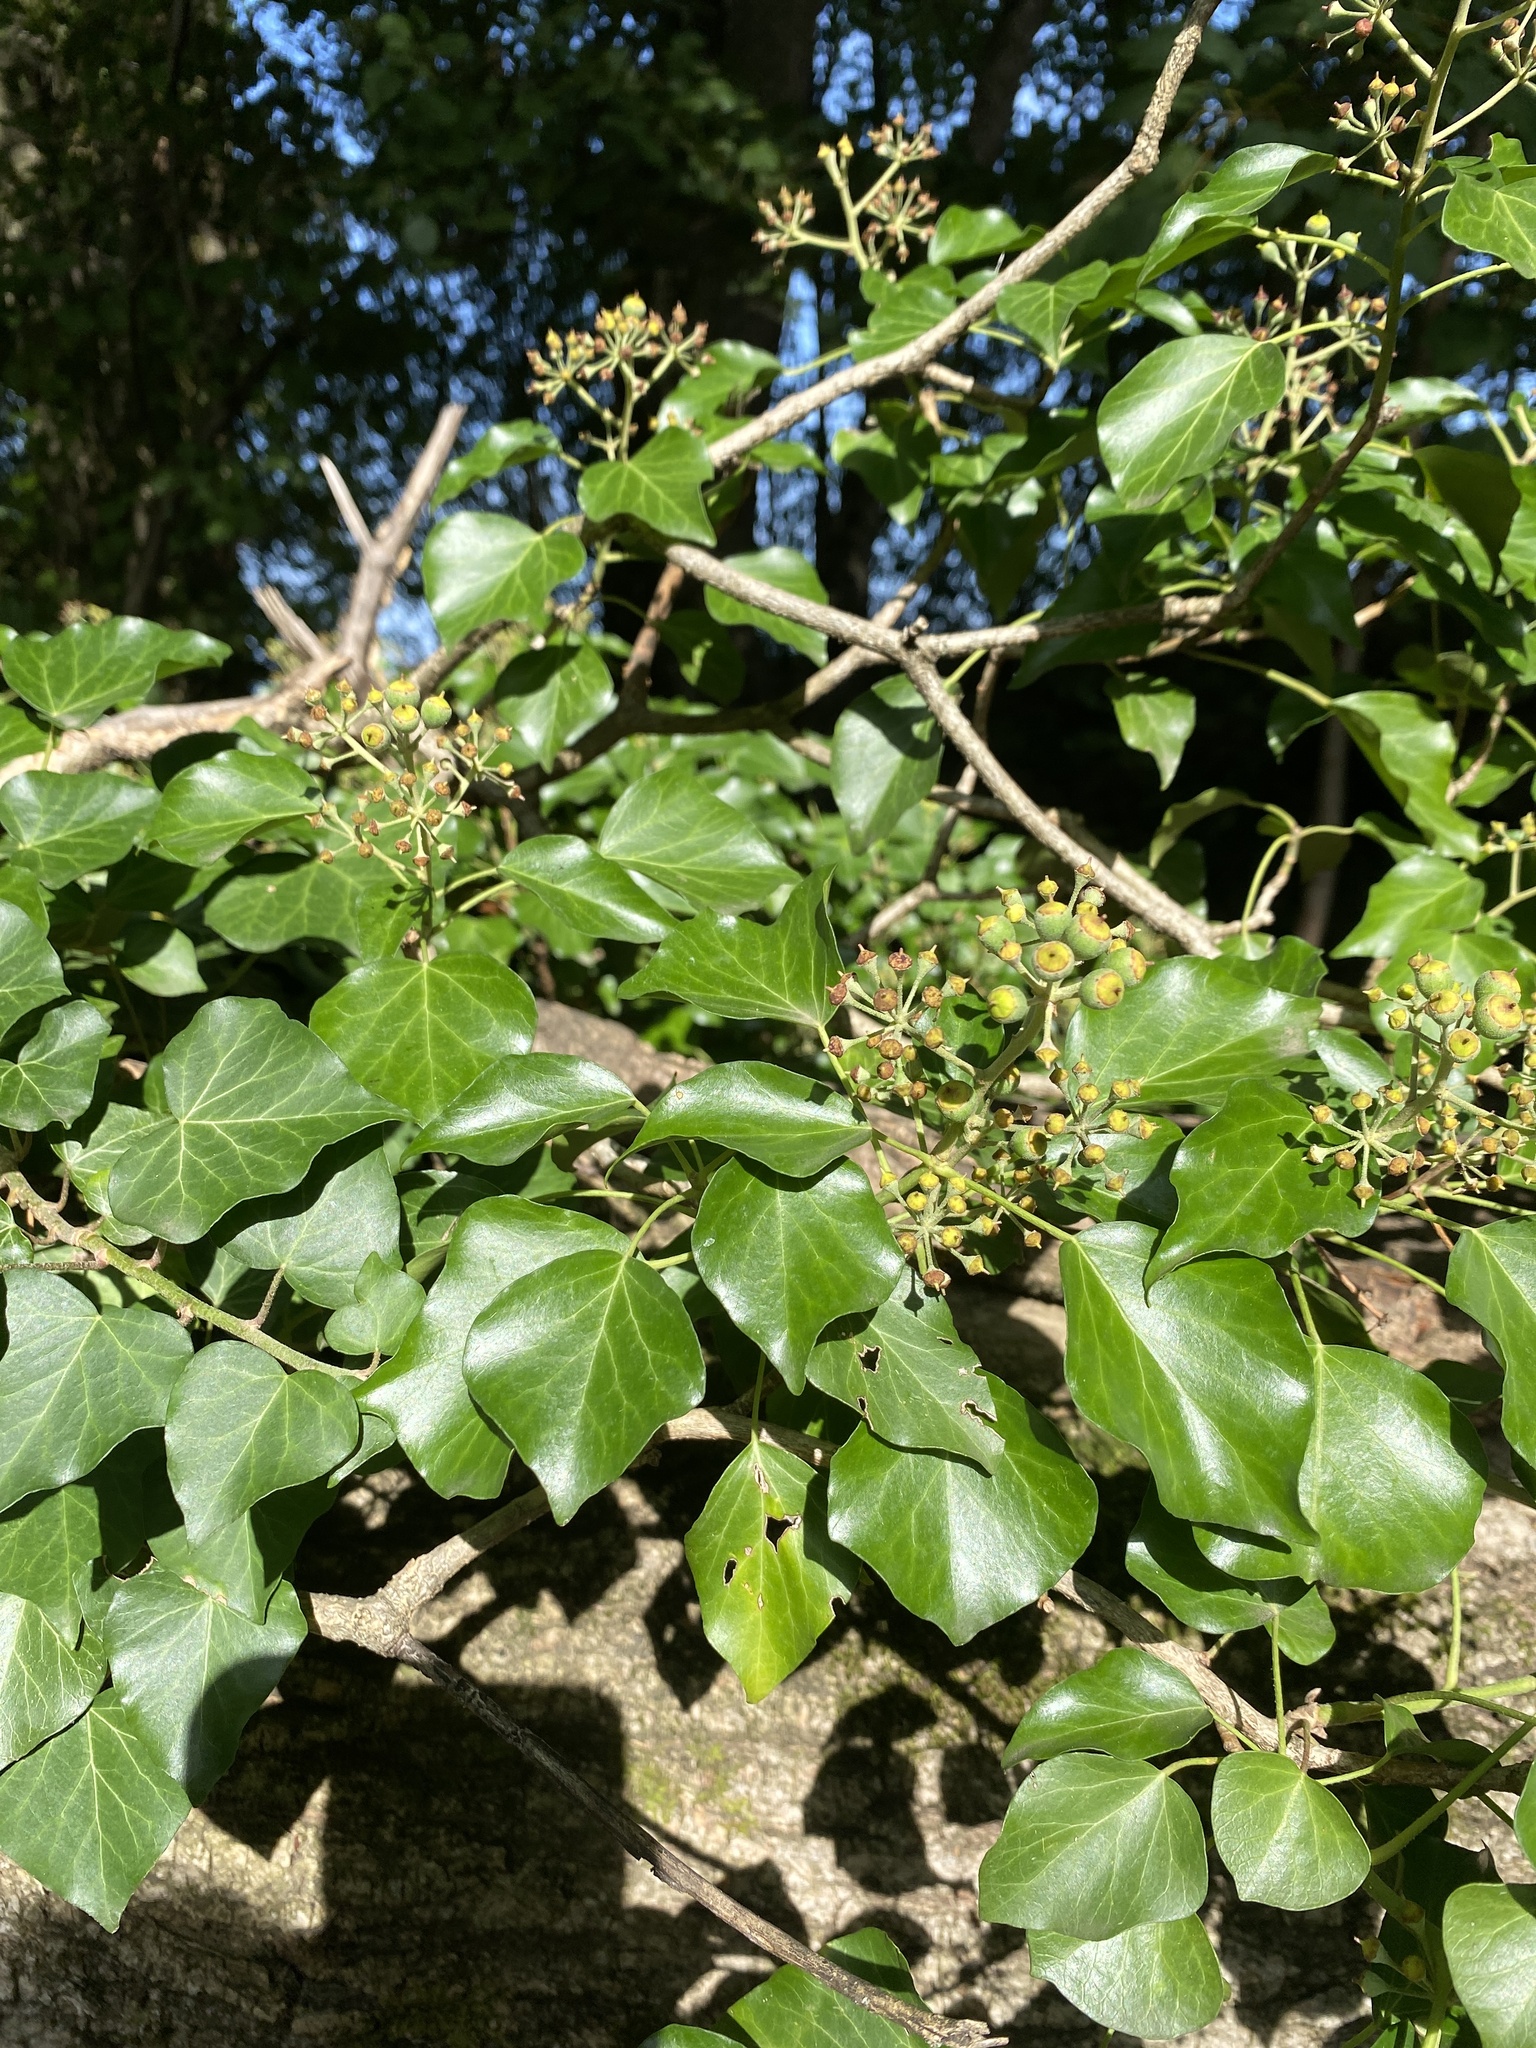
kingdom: Plantae
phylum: Tracheophyta
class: Magnoliopsida
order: Apiales
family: Araliaceae
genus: Hedera
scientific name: Hedera helix
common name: Ivy
